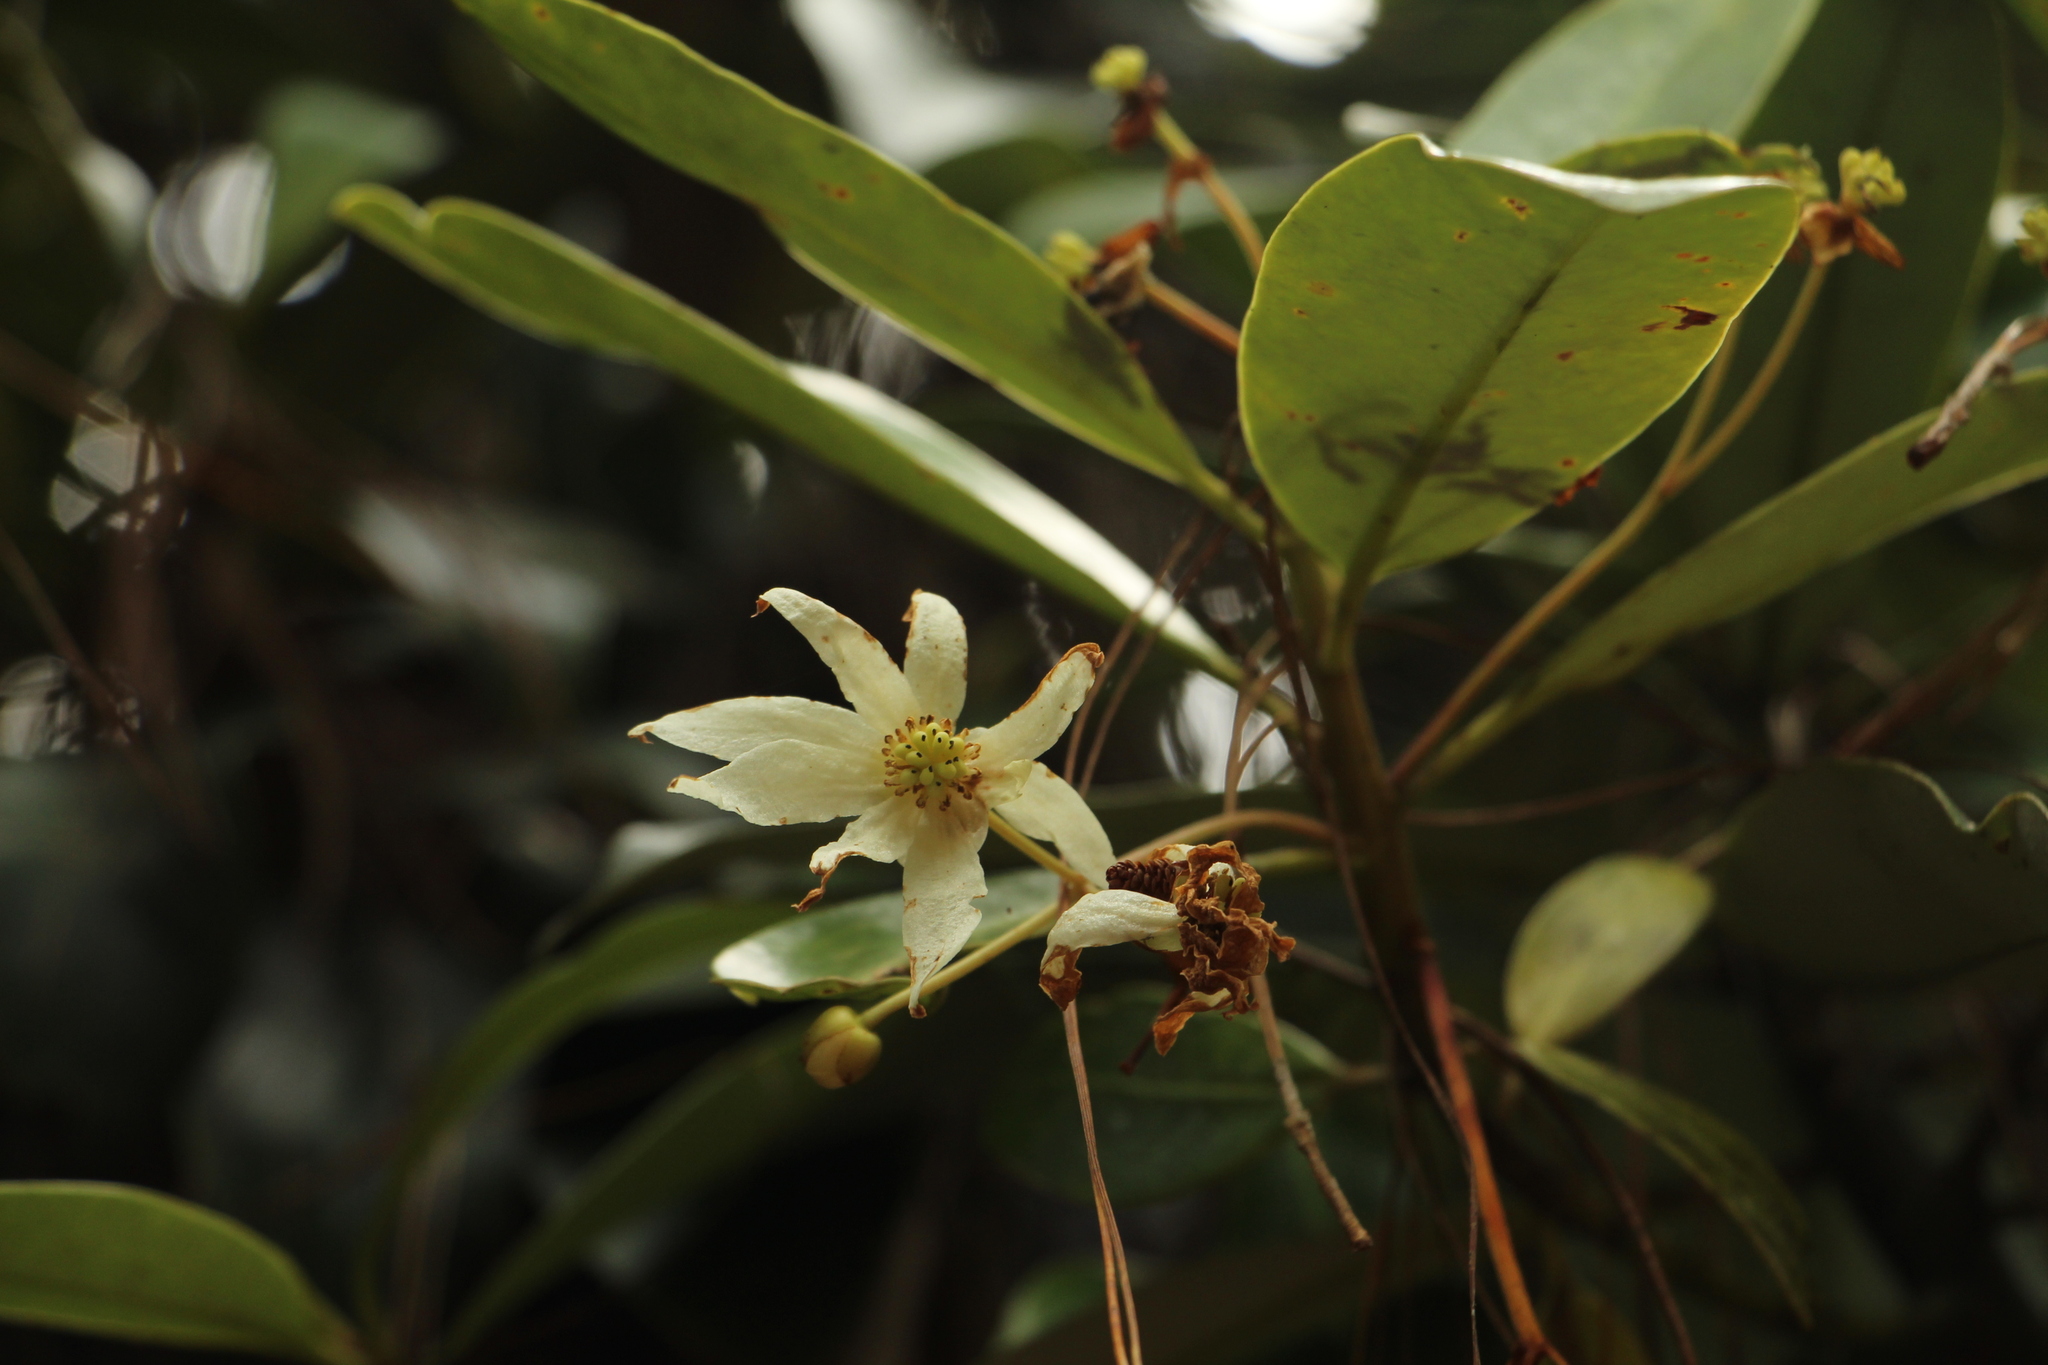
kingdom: Plantae
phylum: Tracheophyta
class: Magnoliopsida
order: Canellales
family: Winteraceae
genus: Drimys
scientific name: Drimys granadensis
